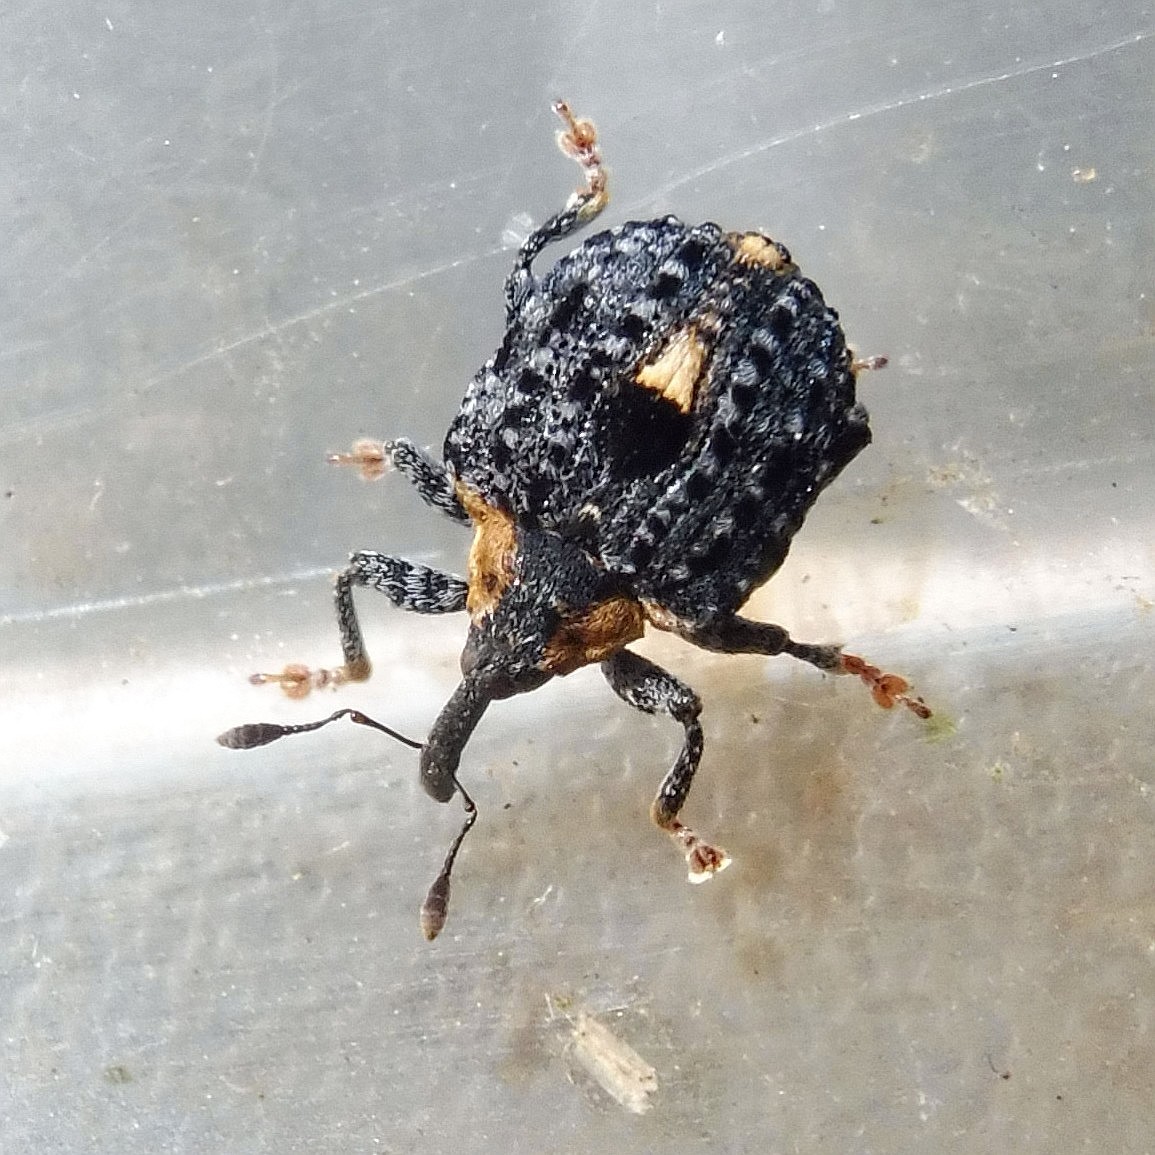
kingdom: Animalia
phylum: Arthropoda
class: Insecta
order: Coleoptera
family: Curculionidae
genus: Cionus
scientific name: Cionus tuberculosus
